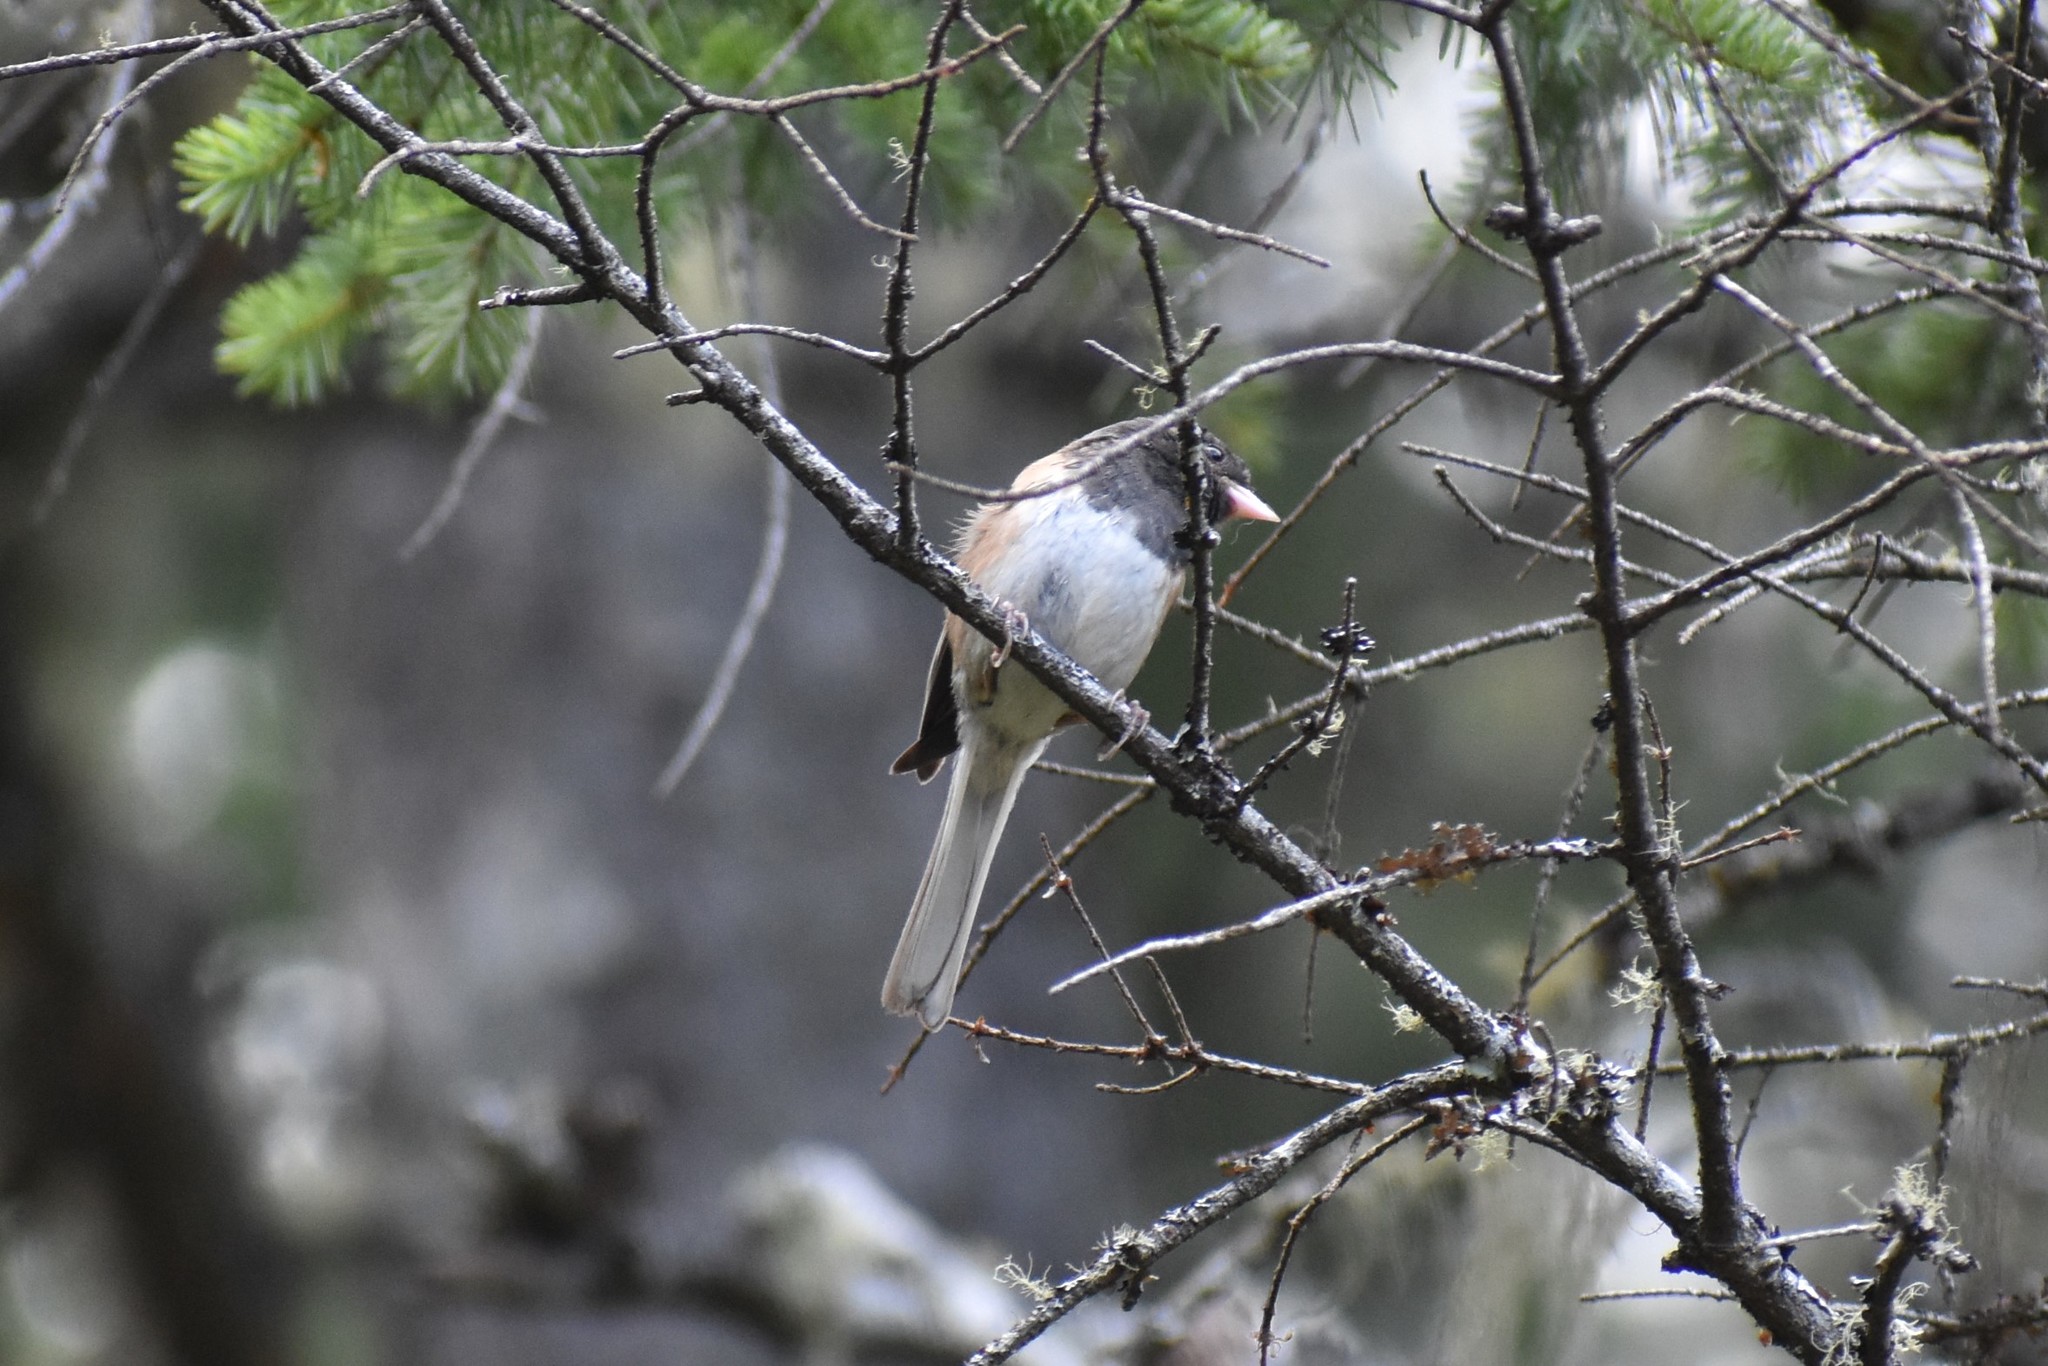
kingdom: Animalia
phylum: Chordata
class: Aves
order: Passeriformes
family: Passerellidae
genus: Junco
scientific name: Junco hyemalis
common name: Dark-eyed junco
